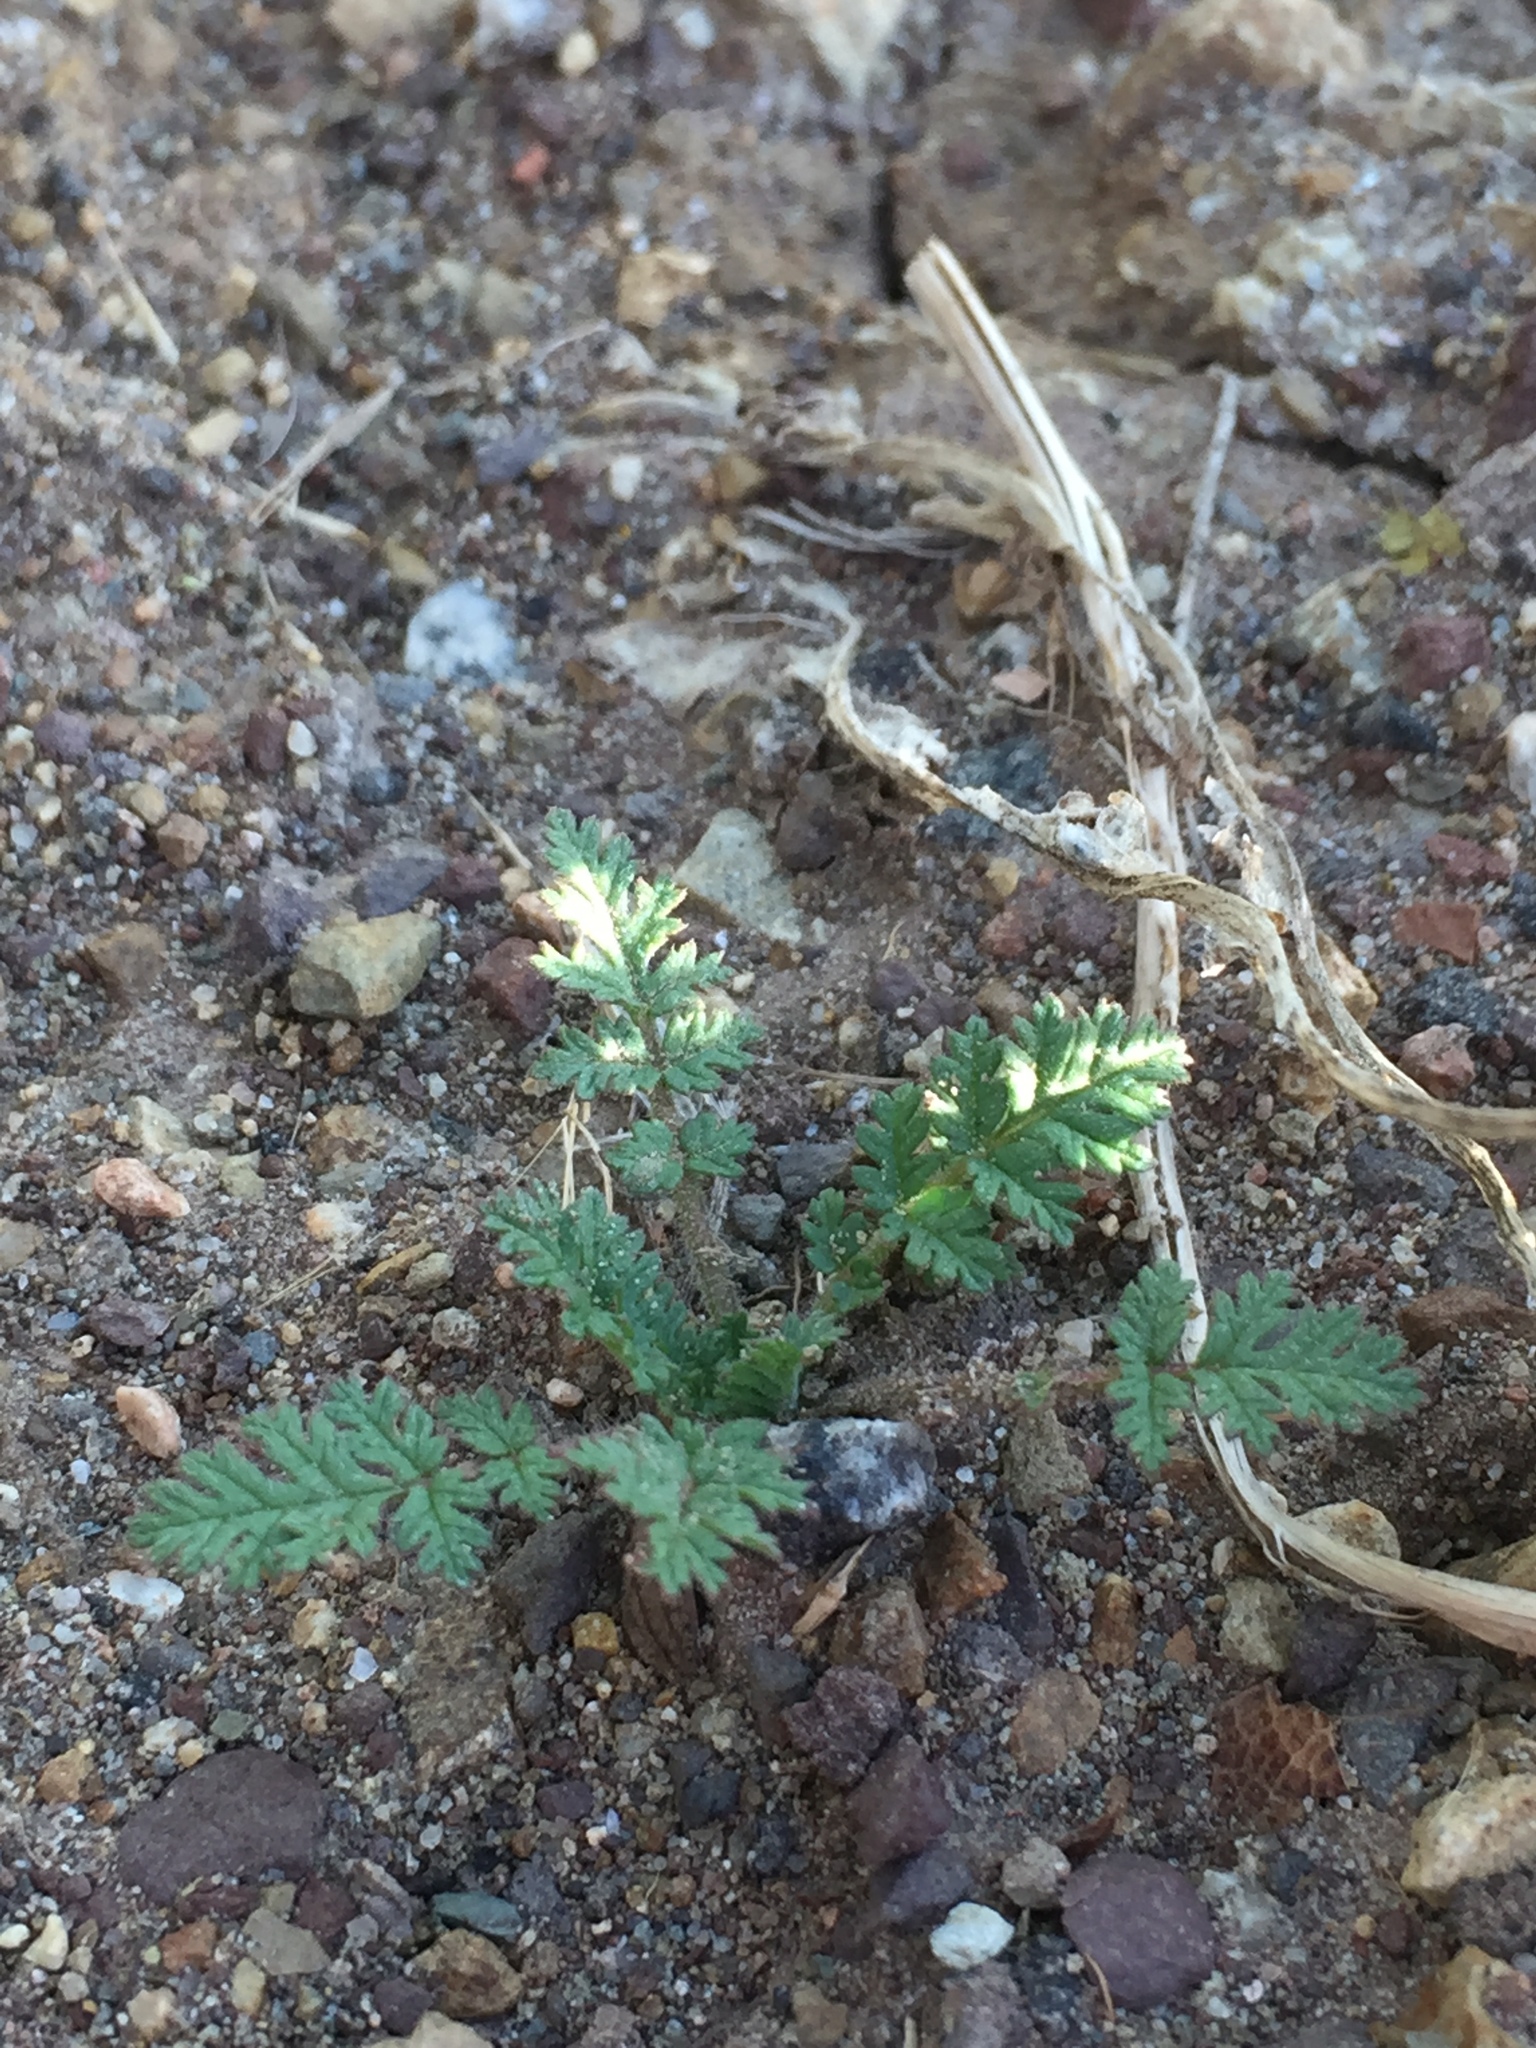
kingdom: Plantae
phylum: Tracheophyta
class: Magnoliopsida
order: Geraniales
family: Geraniaceae
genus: Erodium
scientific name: Erodium cicutarium
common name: Common stork's-bill
